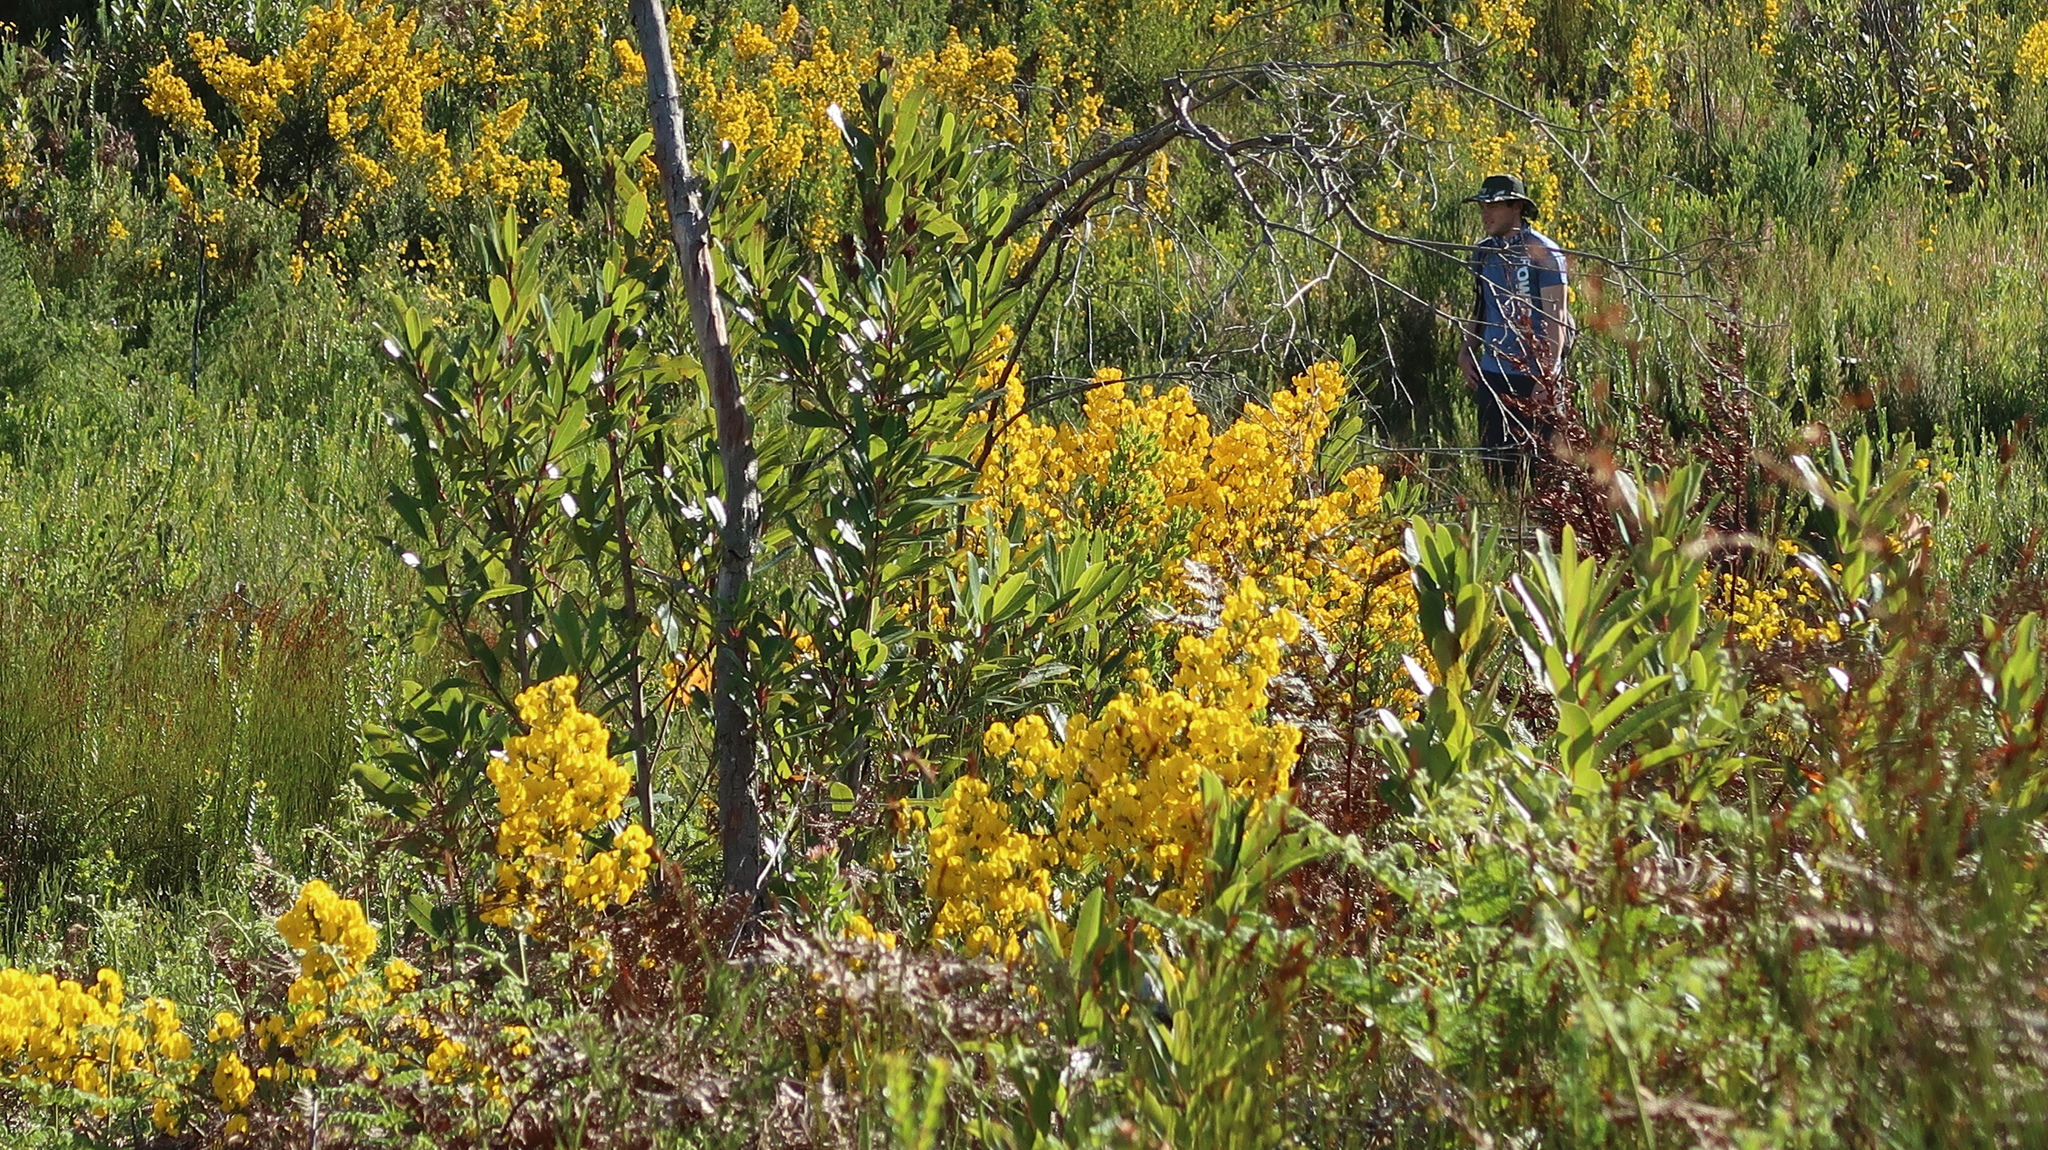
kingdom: Plantae
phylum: Tracheophyta
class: Magnoliopsida
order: Fabales
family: Fabaceae
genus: Cyclopia
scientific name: Cyclopia subternata
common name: Honeybush tea
